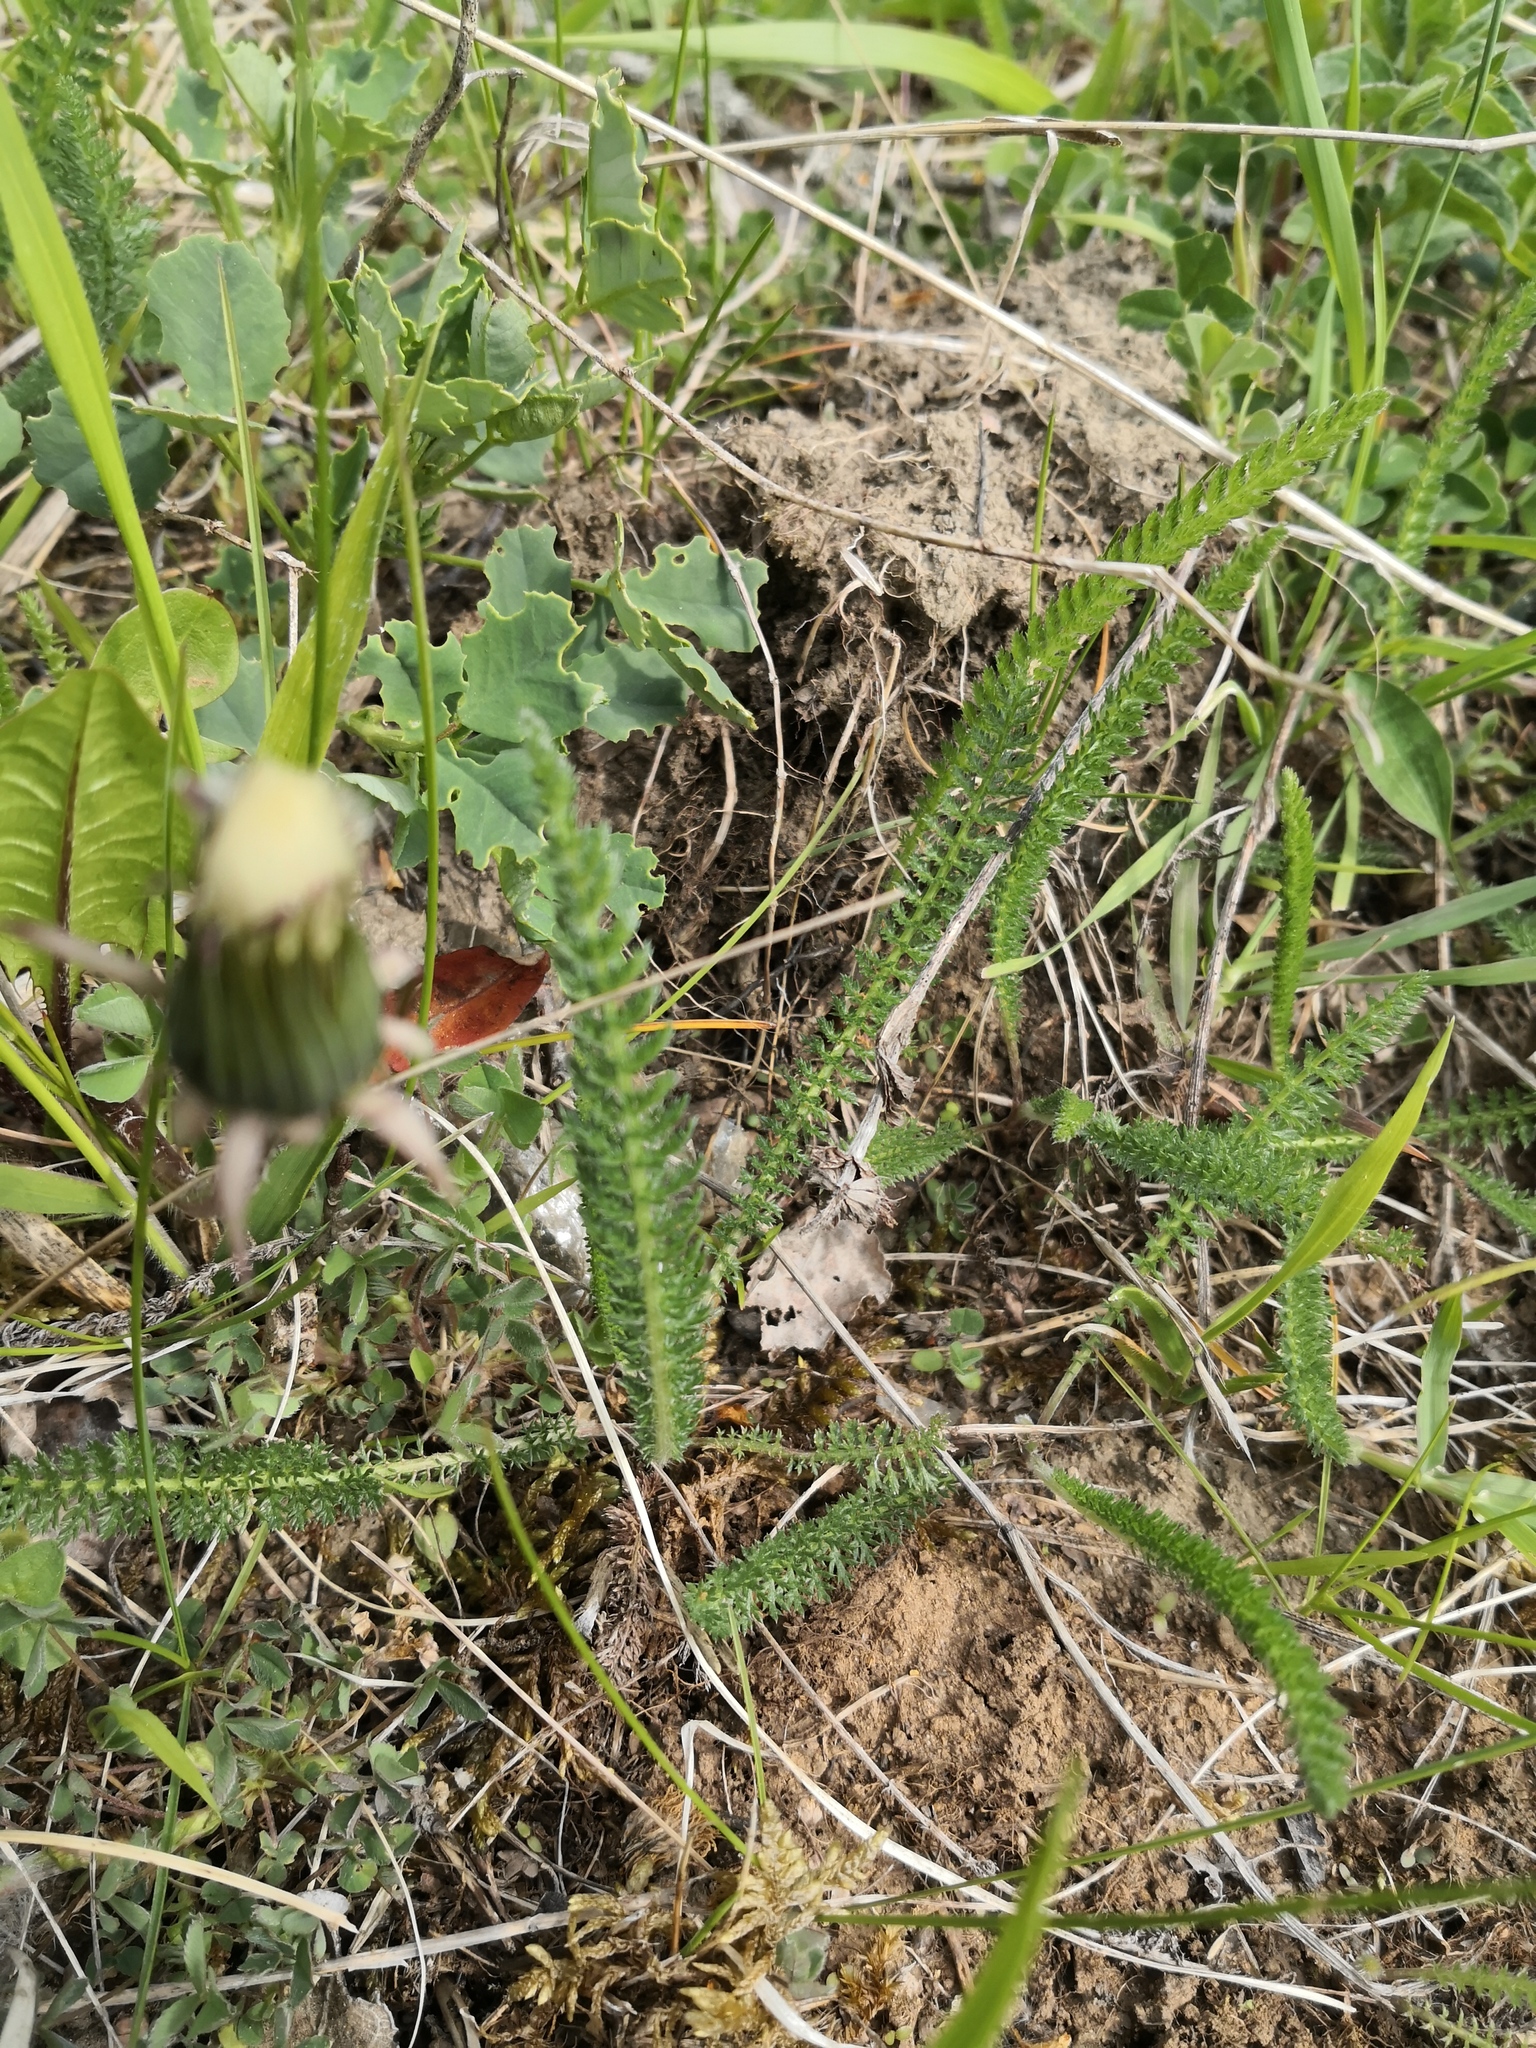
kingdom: Plantae
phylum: Tracheophyta
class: Magnoliopsida
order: Asterales
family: Asteraceae
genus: Achillea
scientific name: Achillea millefolium
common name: Yarrow
